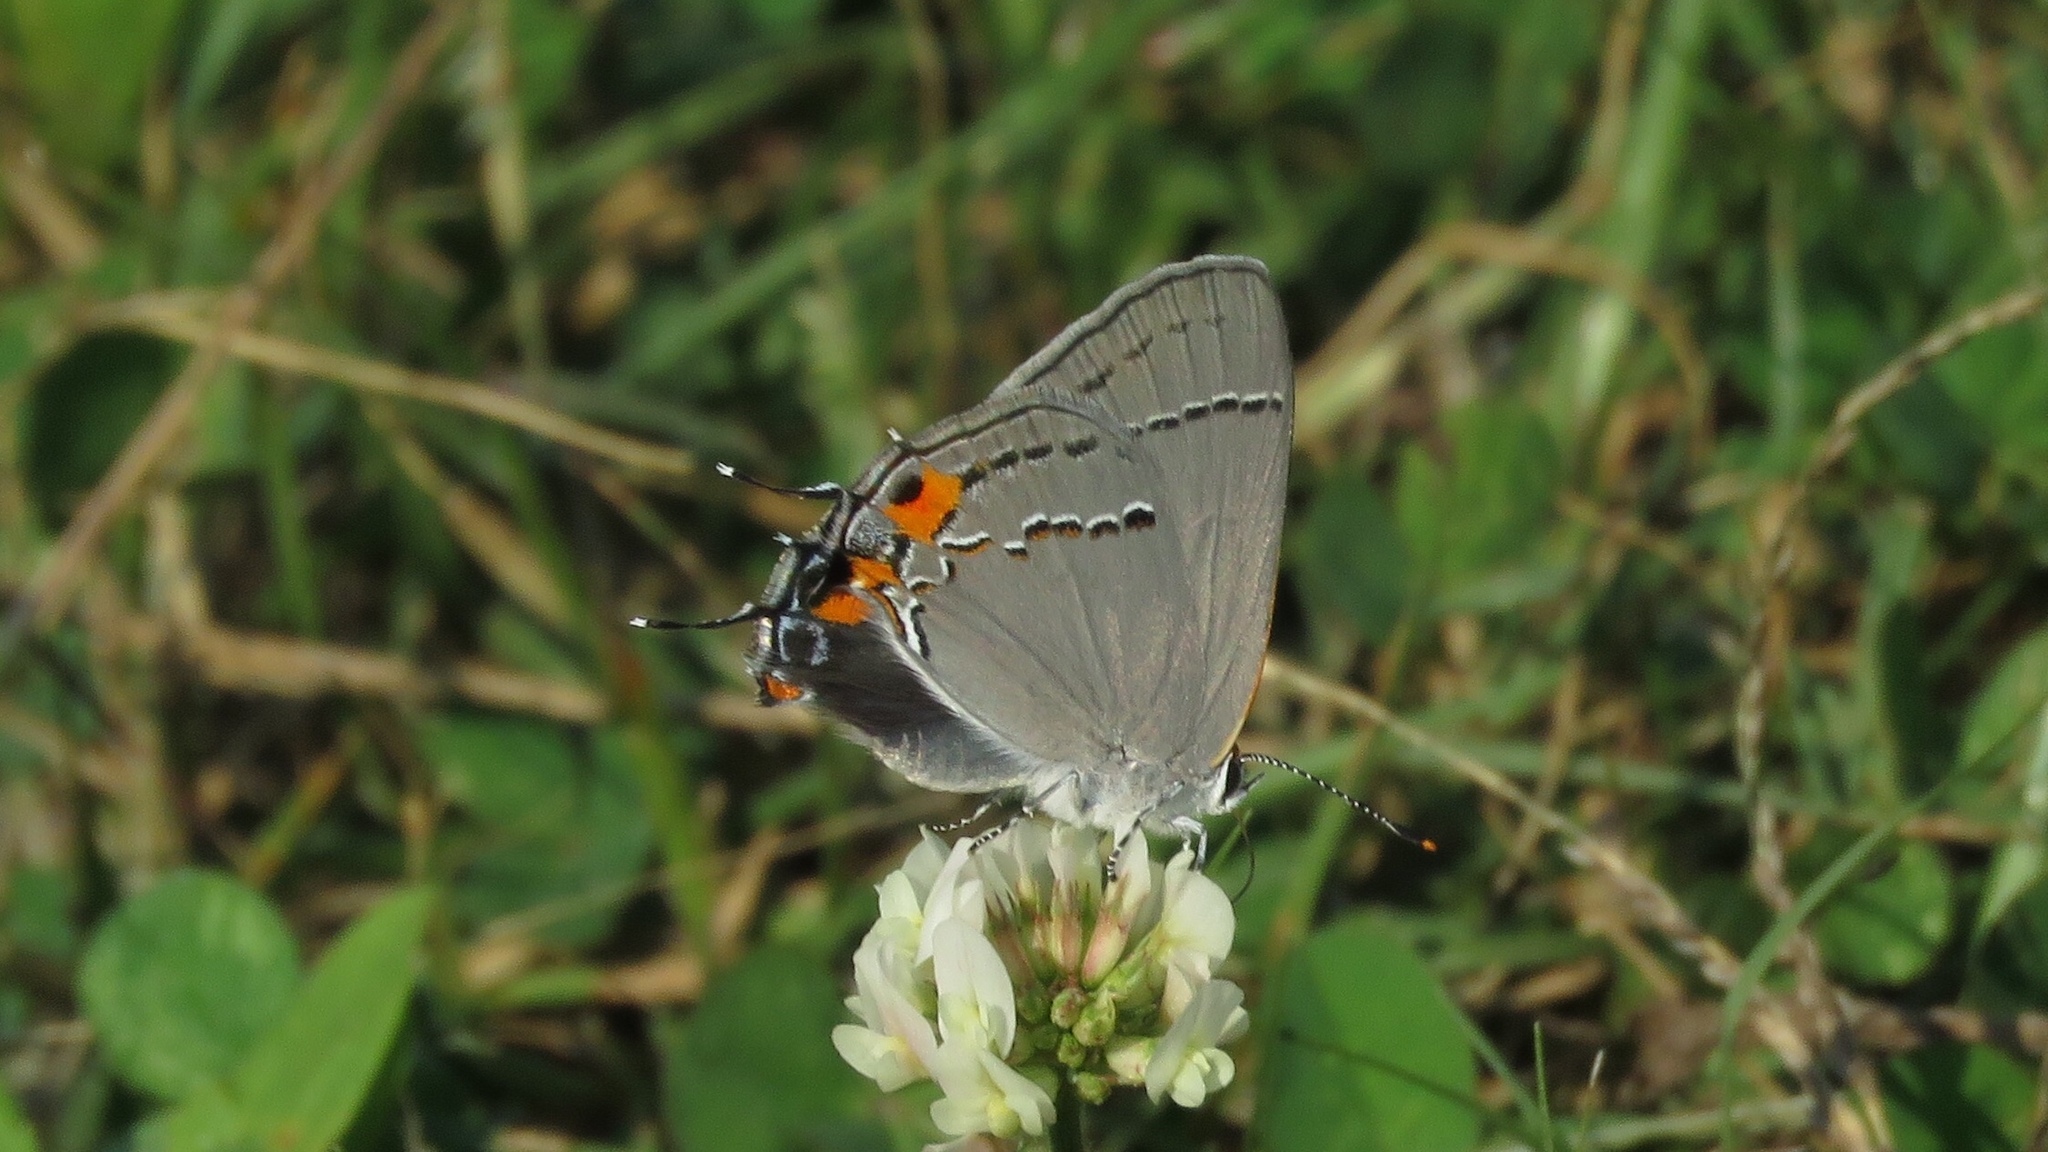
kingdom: Animalia
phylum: Arthropoda
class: Insecta
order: Lepidoptera
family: Lycaenidae
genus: Strymon
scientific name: Strymon melinus
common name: Gray hairstreak
